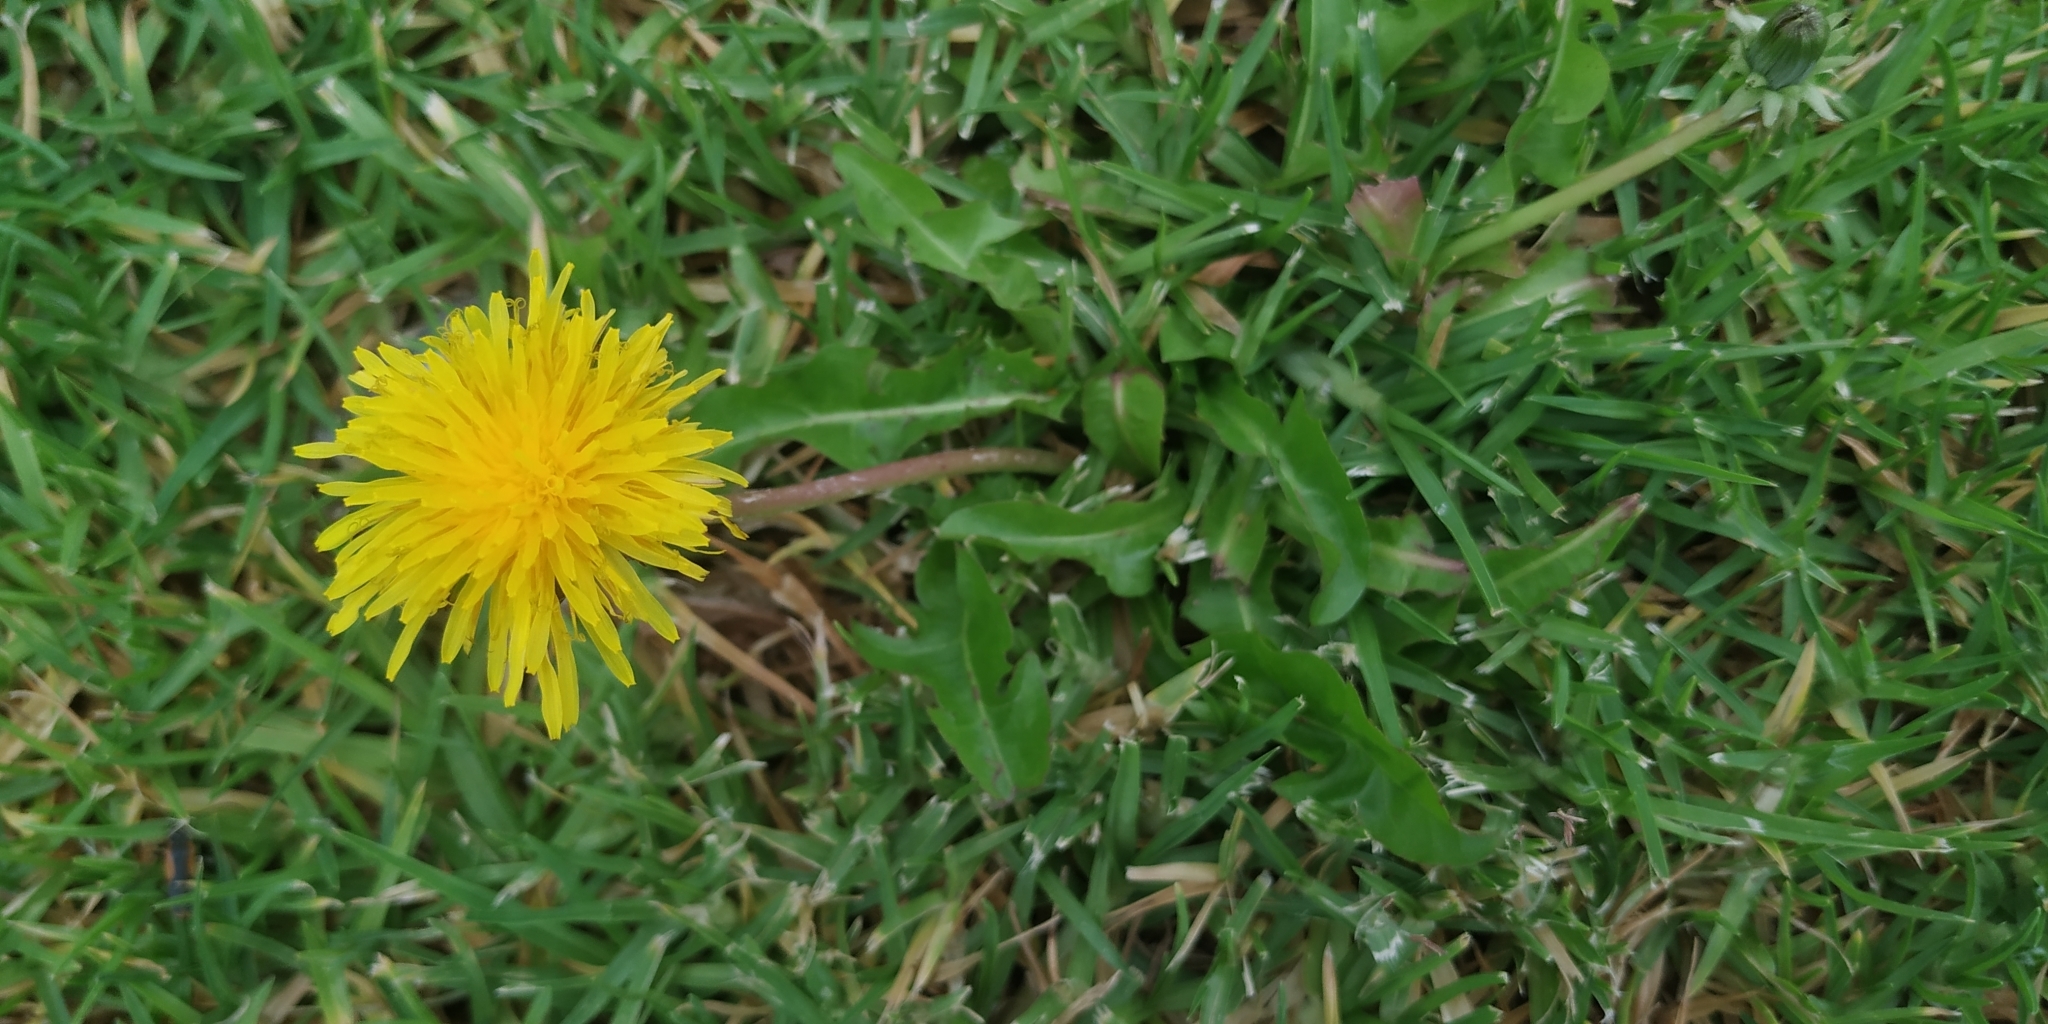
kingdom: Plantae
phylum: Tracheophyta
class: Magnoliopsida
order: Asterales
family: Asteraceae
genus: Taraxacum
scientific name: Taraxacum officinale
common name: Common dandelion
